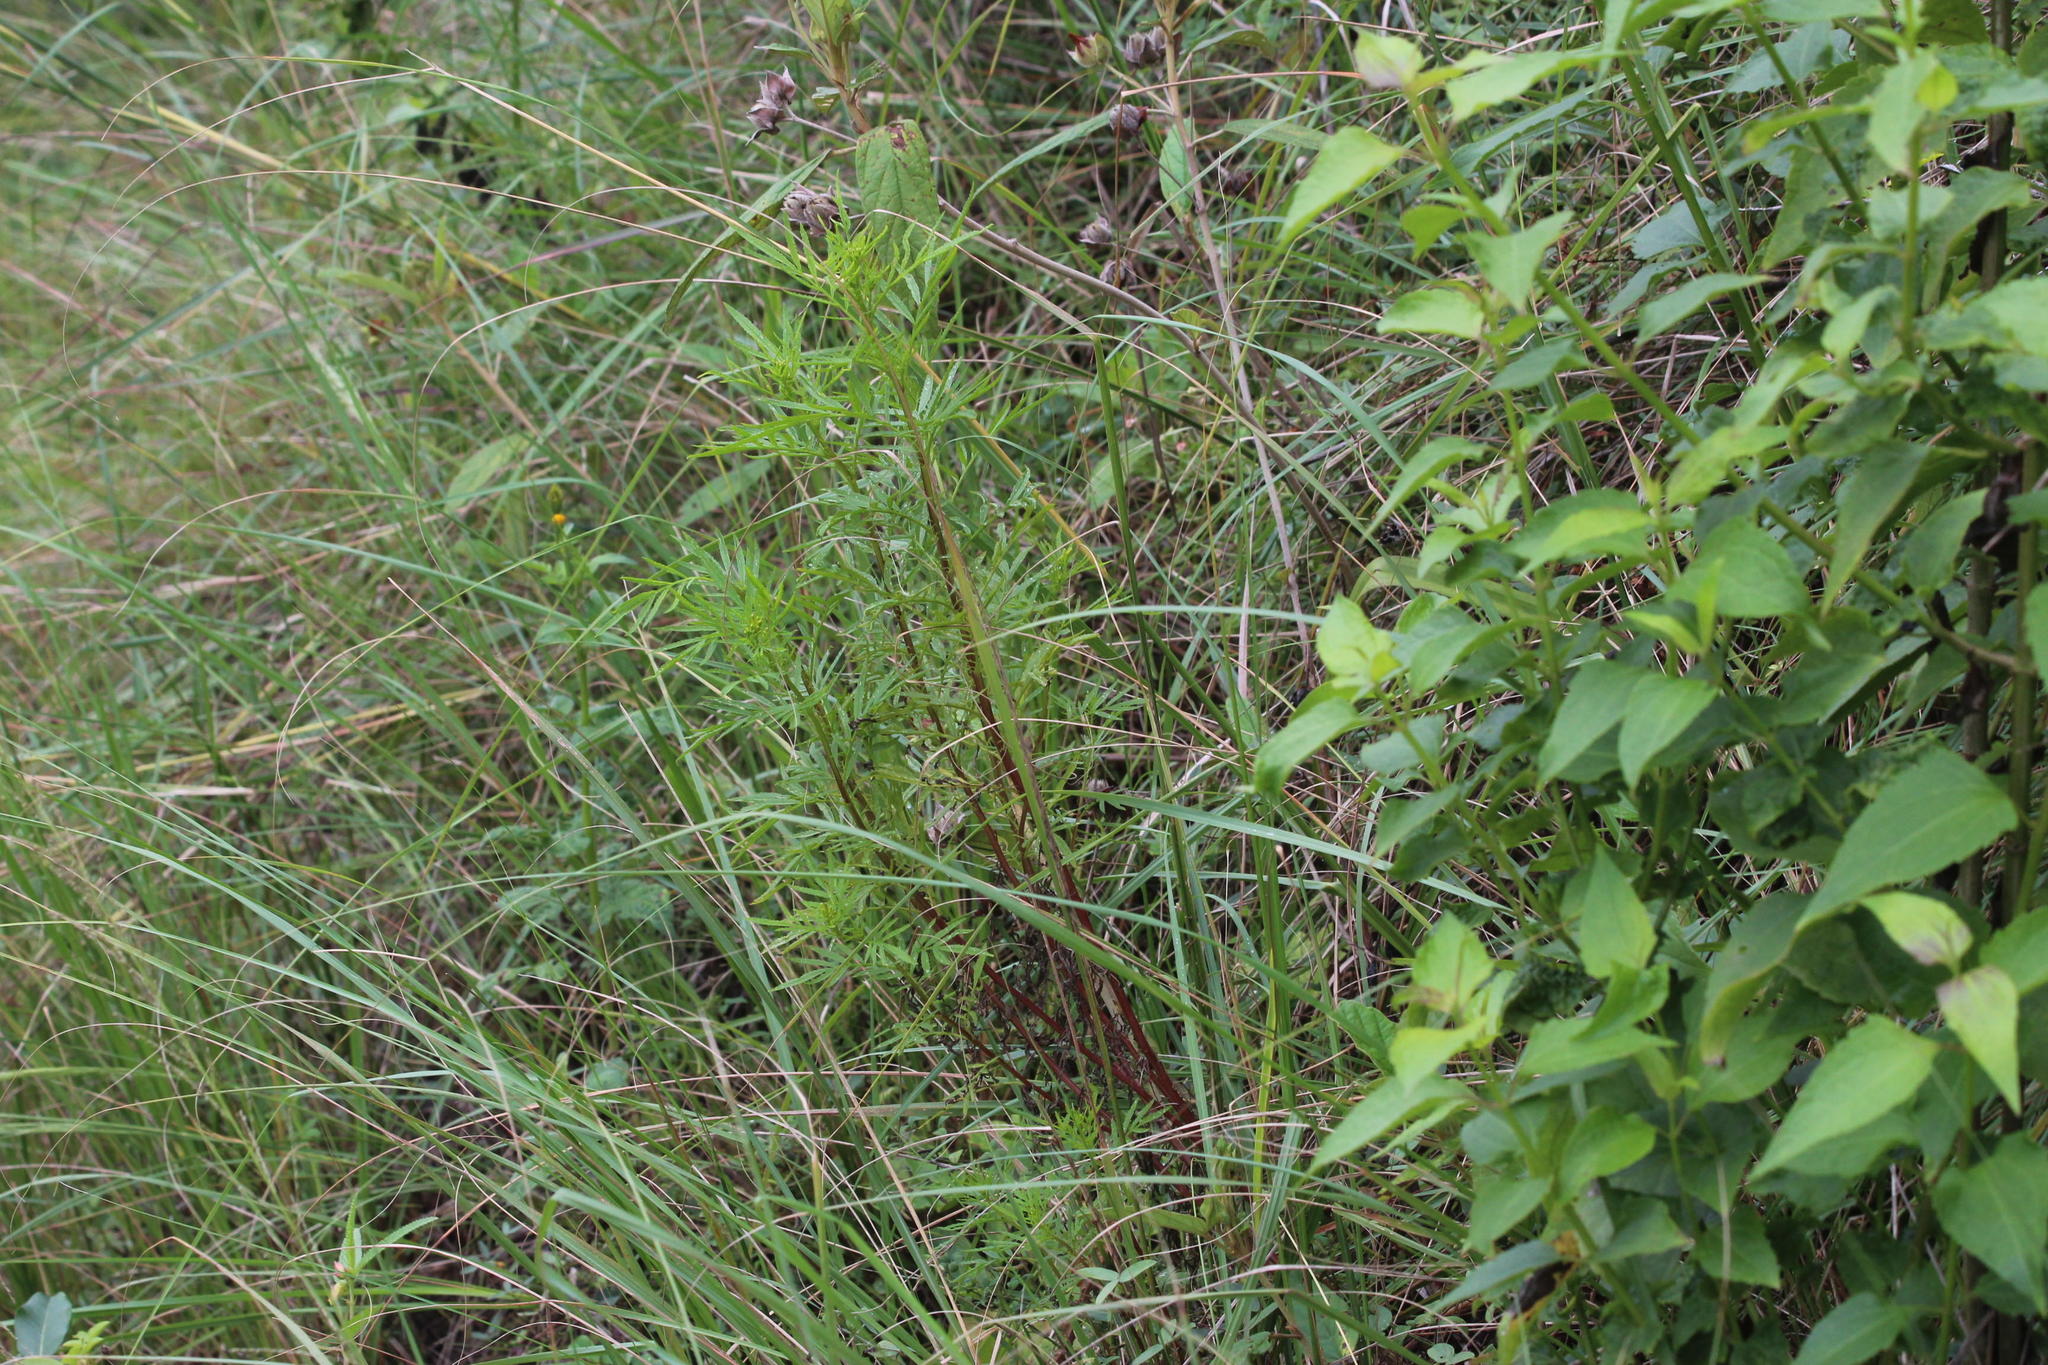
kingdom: Plantae
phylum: Tracheophyta
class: Magnoliopsida
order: Asterales
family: Asteraceae
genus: Tagetes
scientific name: Tagetes minuta
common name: Muster john henry
